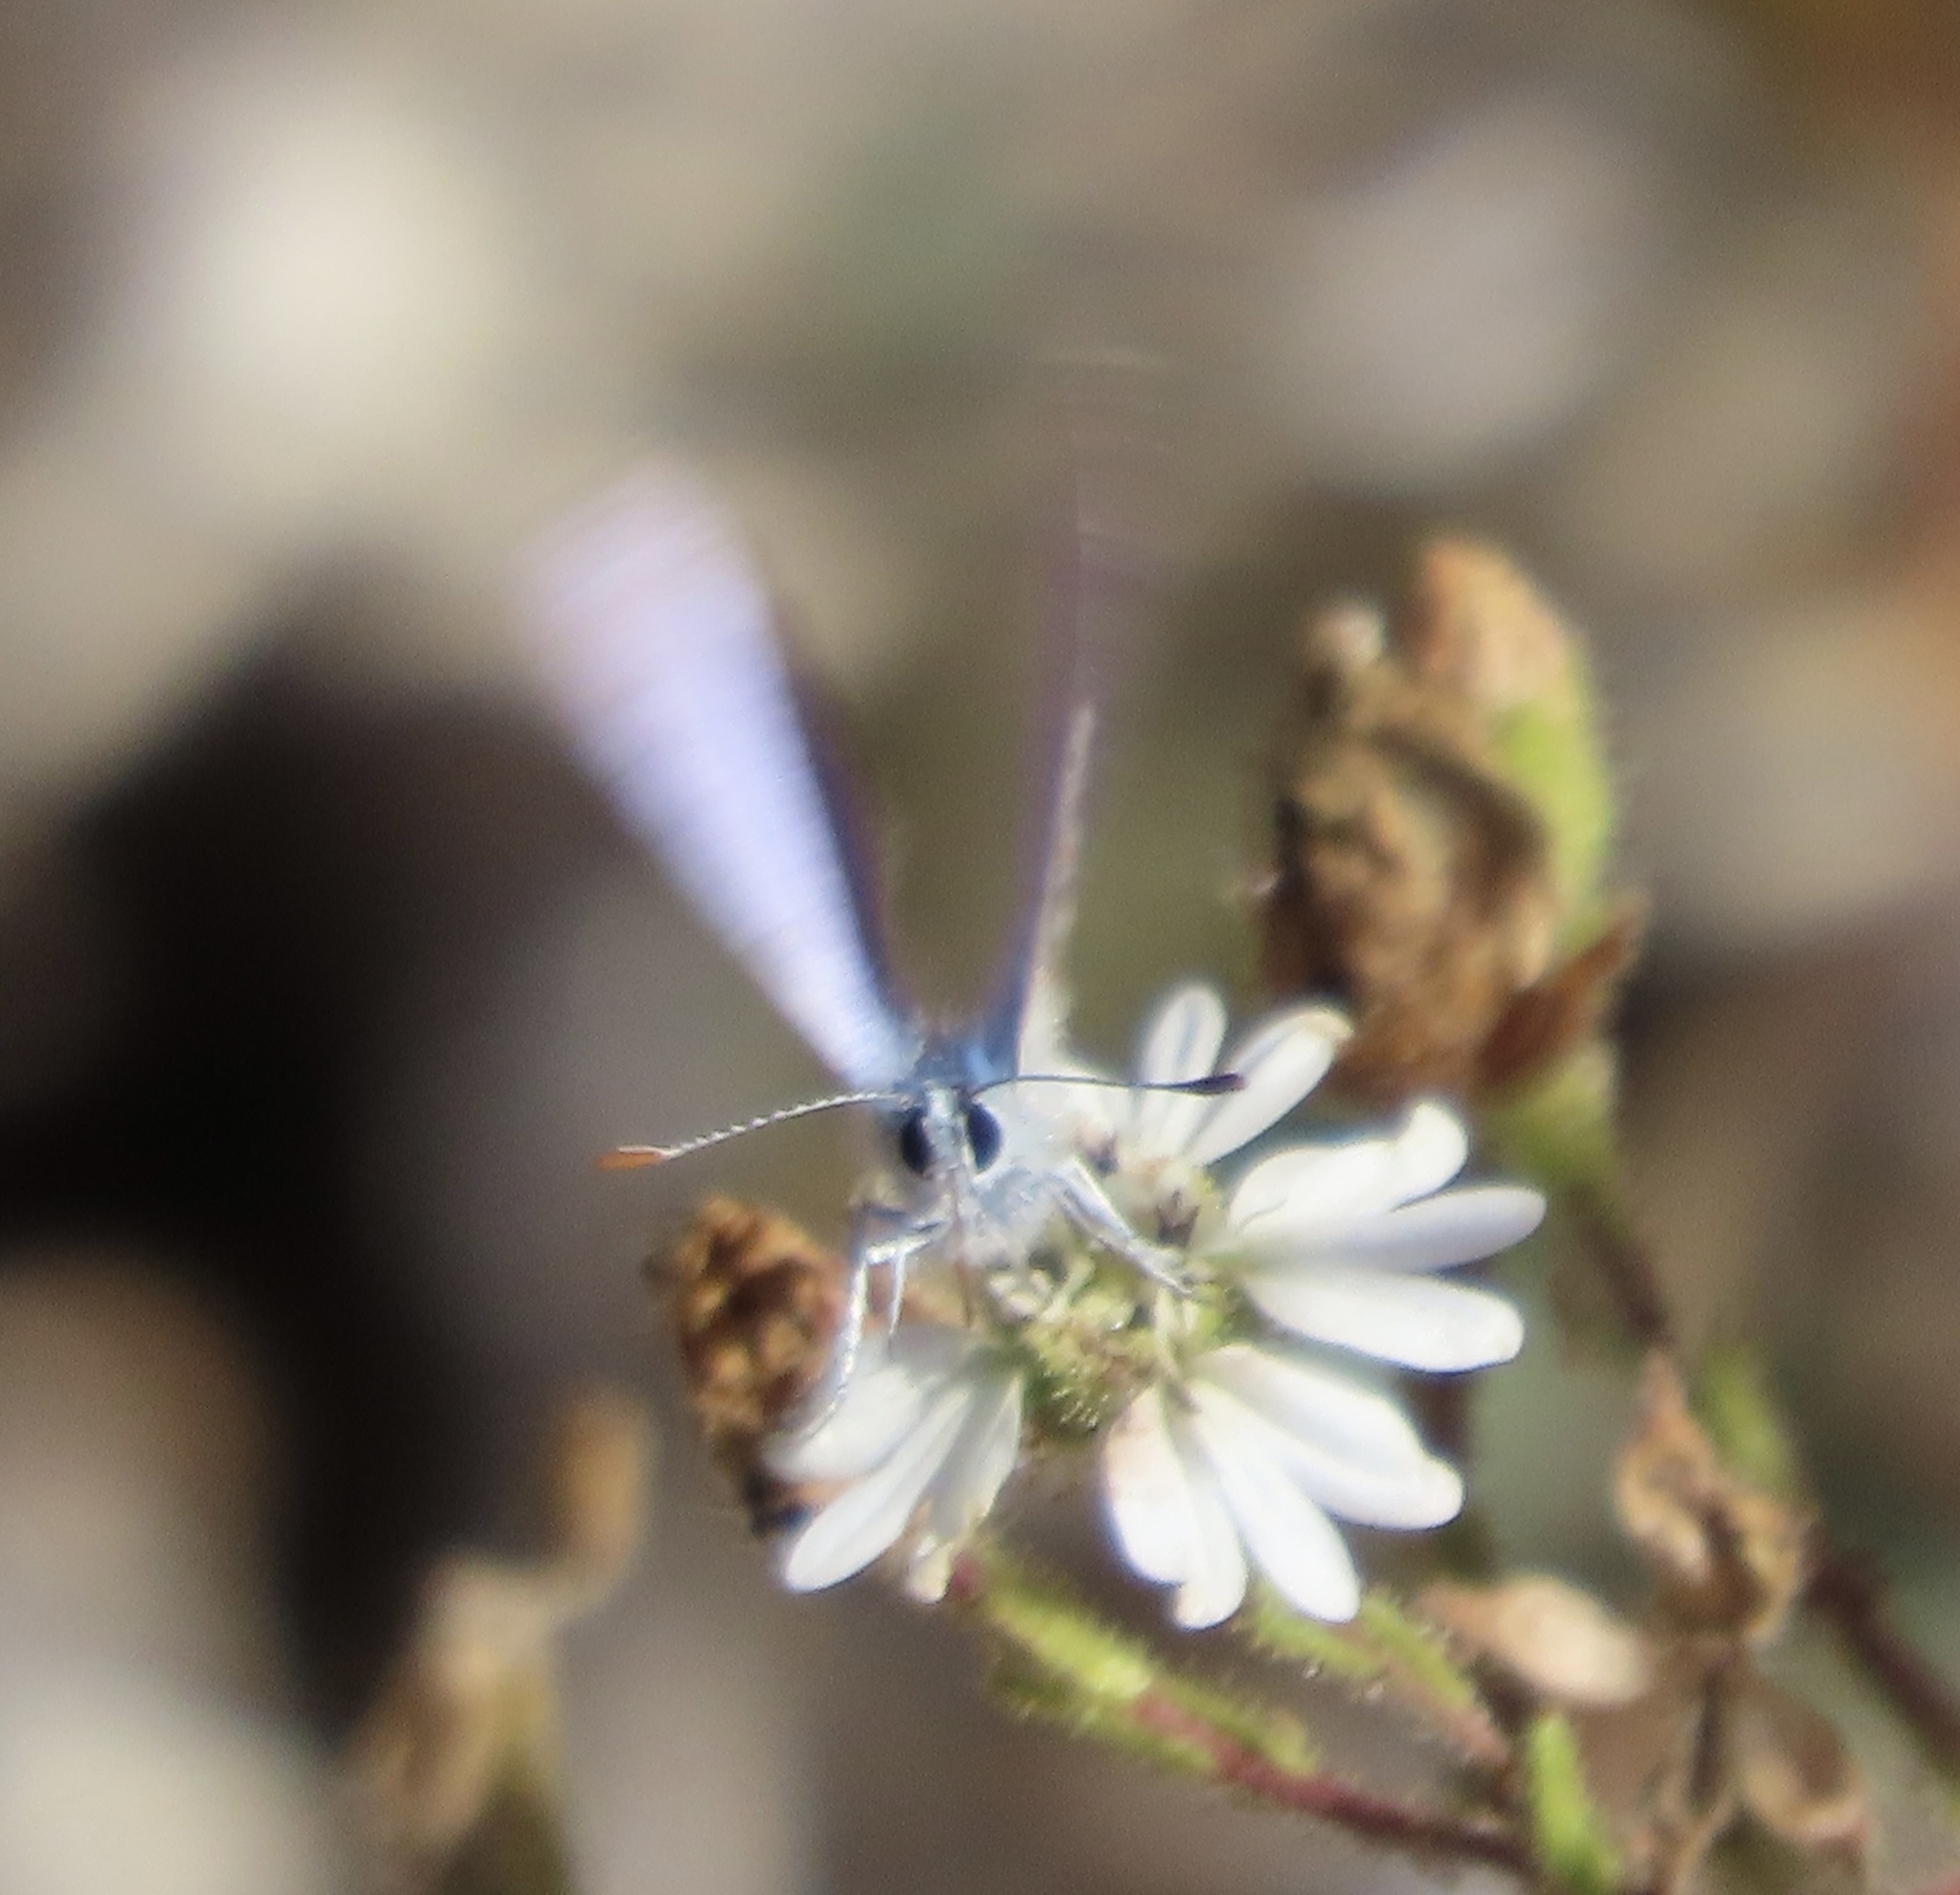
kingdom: Animalia
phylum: Arthropoda
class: Insecta
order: Lepidoptera
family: Lycaenidae
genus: Icaricia
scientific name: Icaricia acmon
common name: Acmon blue
